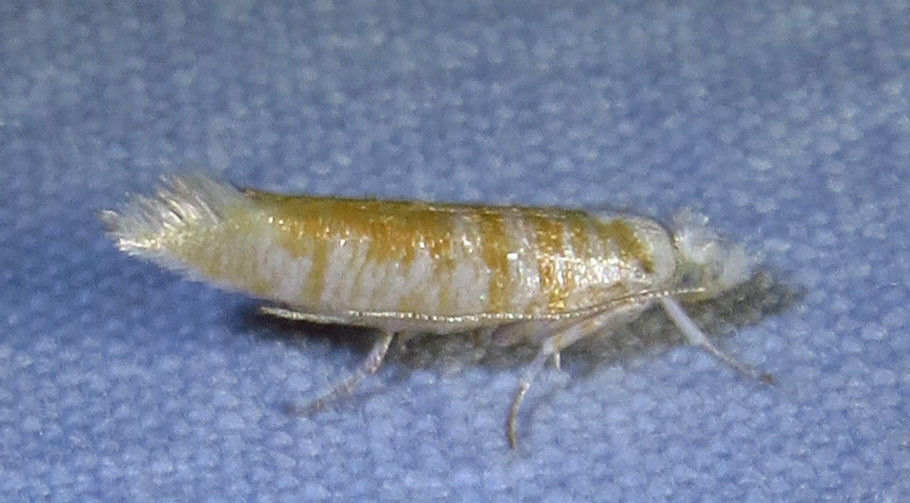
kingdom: Animalia
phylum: Arthropoda
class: Insecta
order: Lepidoptera
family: Yponomeutidae
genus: Zelleria
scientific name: Zelleria retiniella
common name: Brindled zelleria
